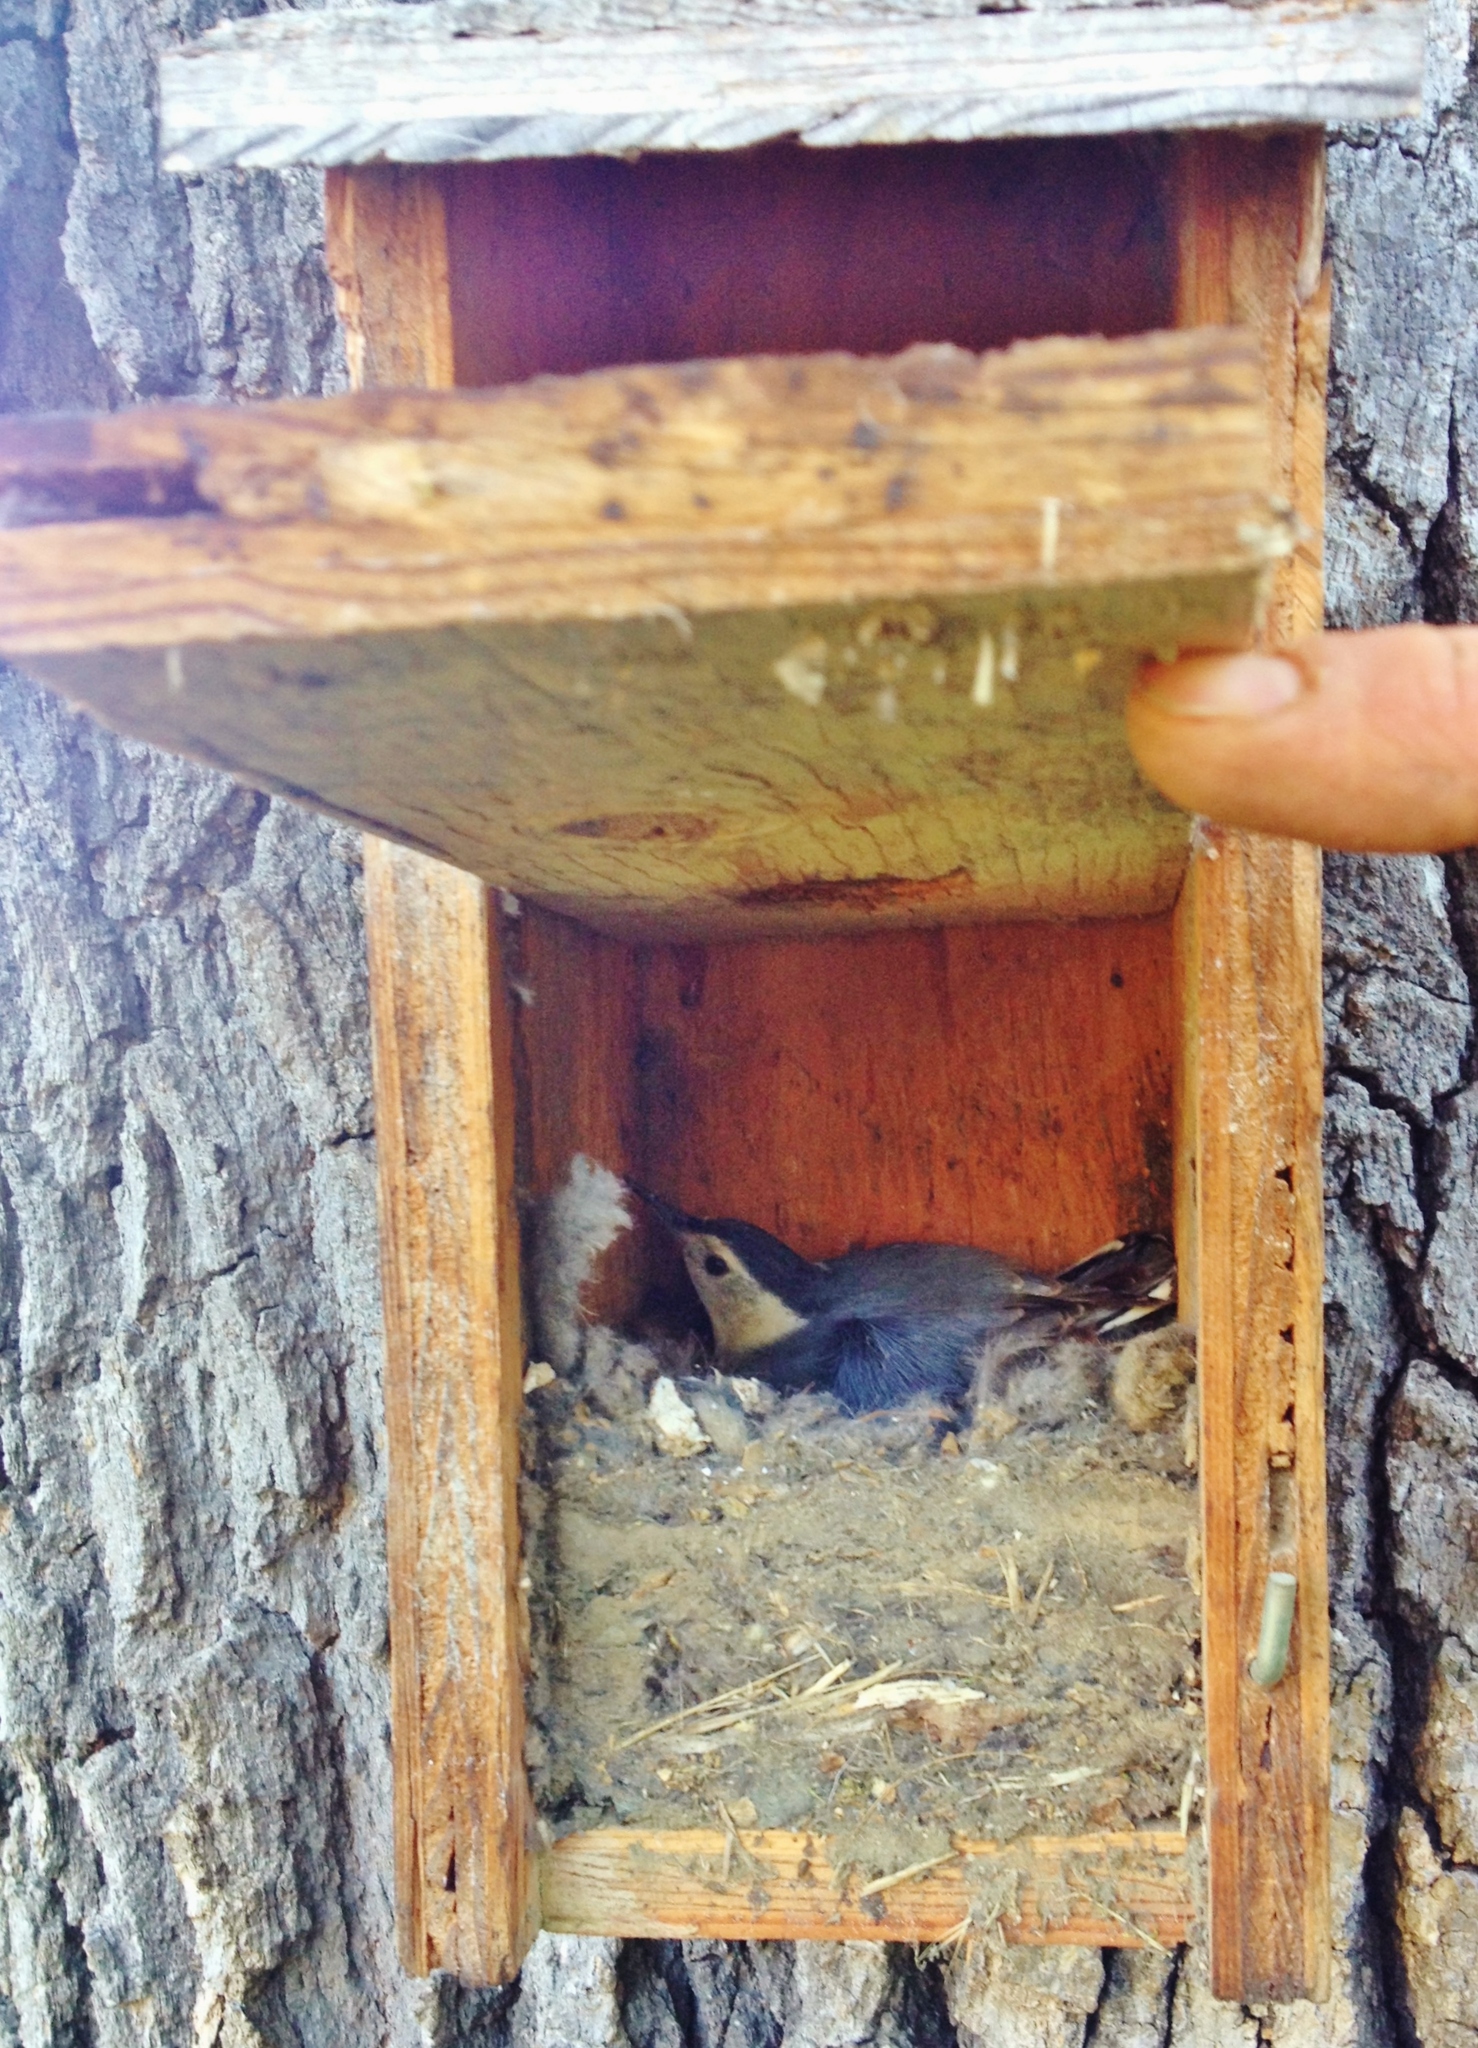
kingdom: Animalia
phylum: Chordata
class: Aves
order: Passeriformes
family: Sittidae
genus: Sitta
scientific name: Sitta carolinensis
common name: White-breasted nuthatch
